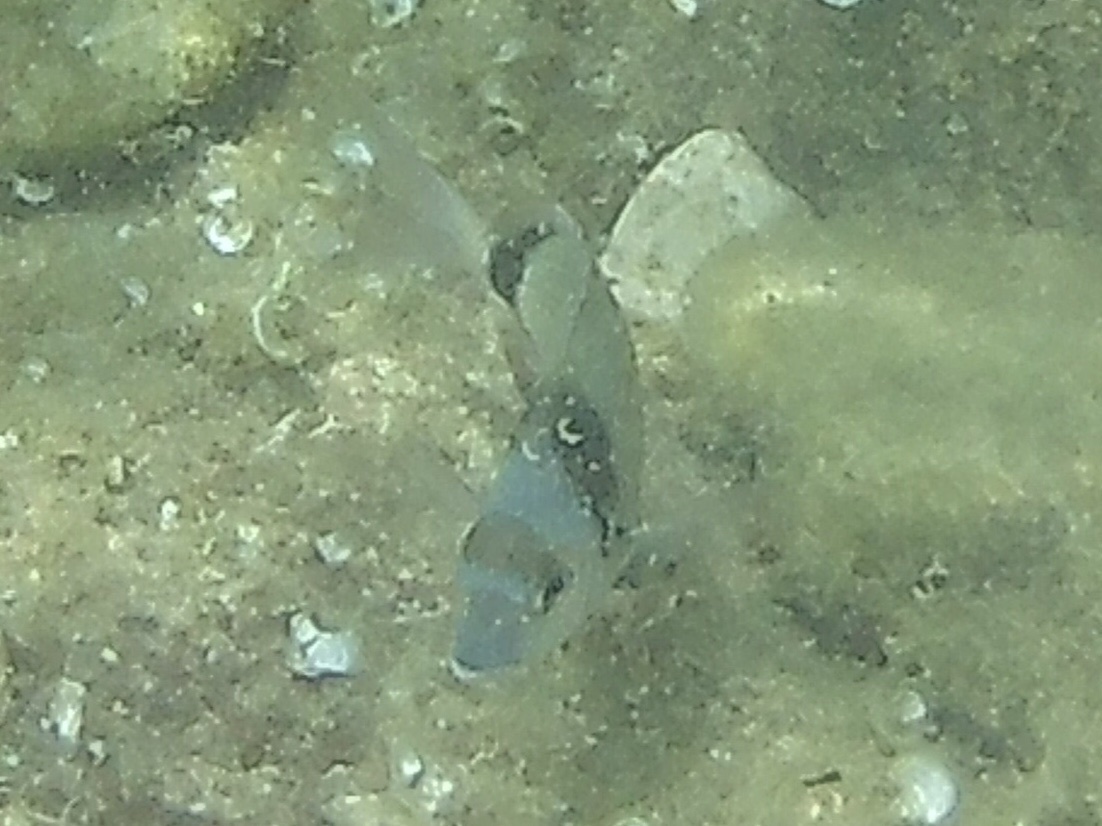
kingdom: Animalia
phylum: Chordata
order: Perciformes
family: Sparidae
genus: Diplodus
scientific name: Diplodus vulgaris
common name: Common two-banded seabream
